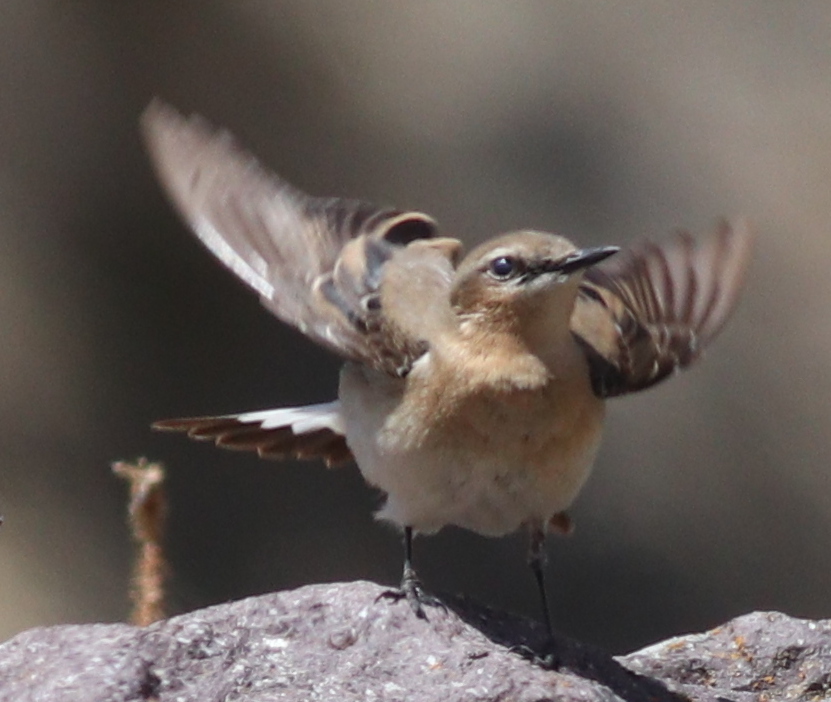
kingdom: Animalia
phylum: Chordata
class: Aves
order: Passeriformes
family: Muscicapidae
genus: Oenanthe
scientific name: Oenanthe oenanthe
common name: Northern wheatear
